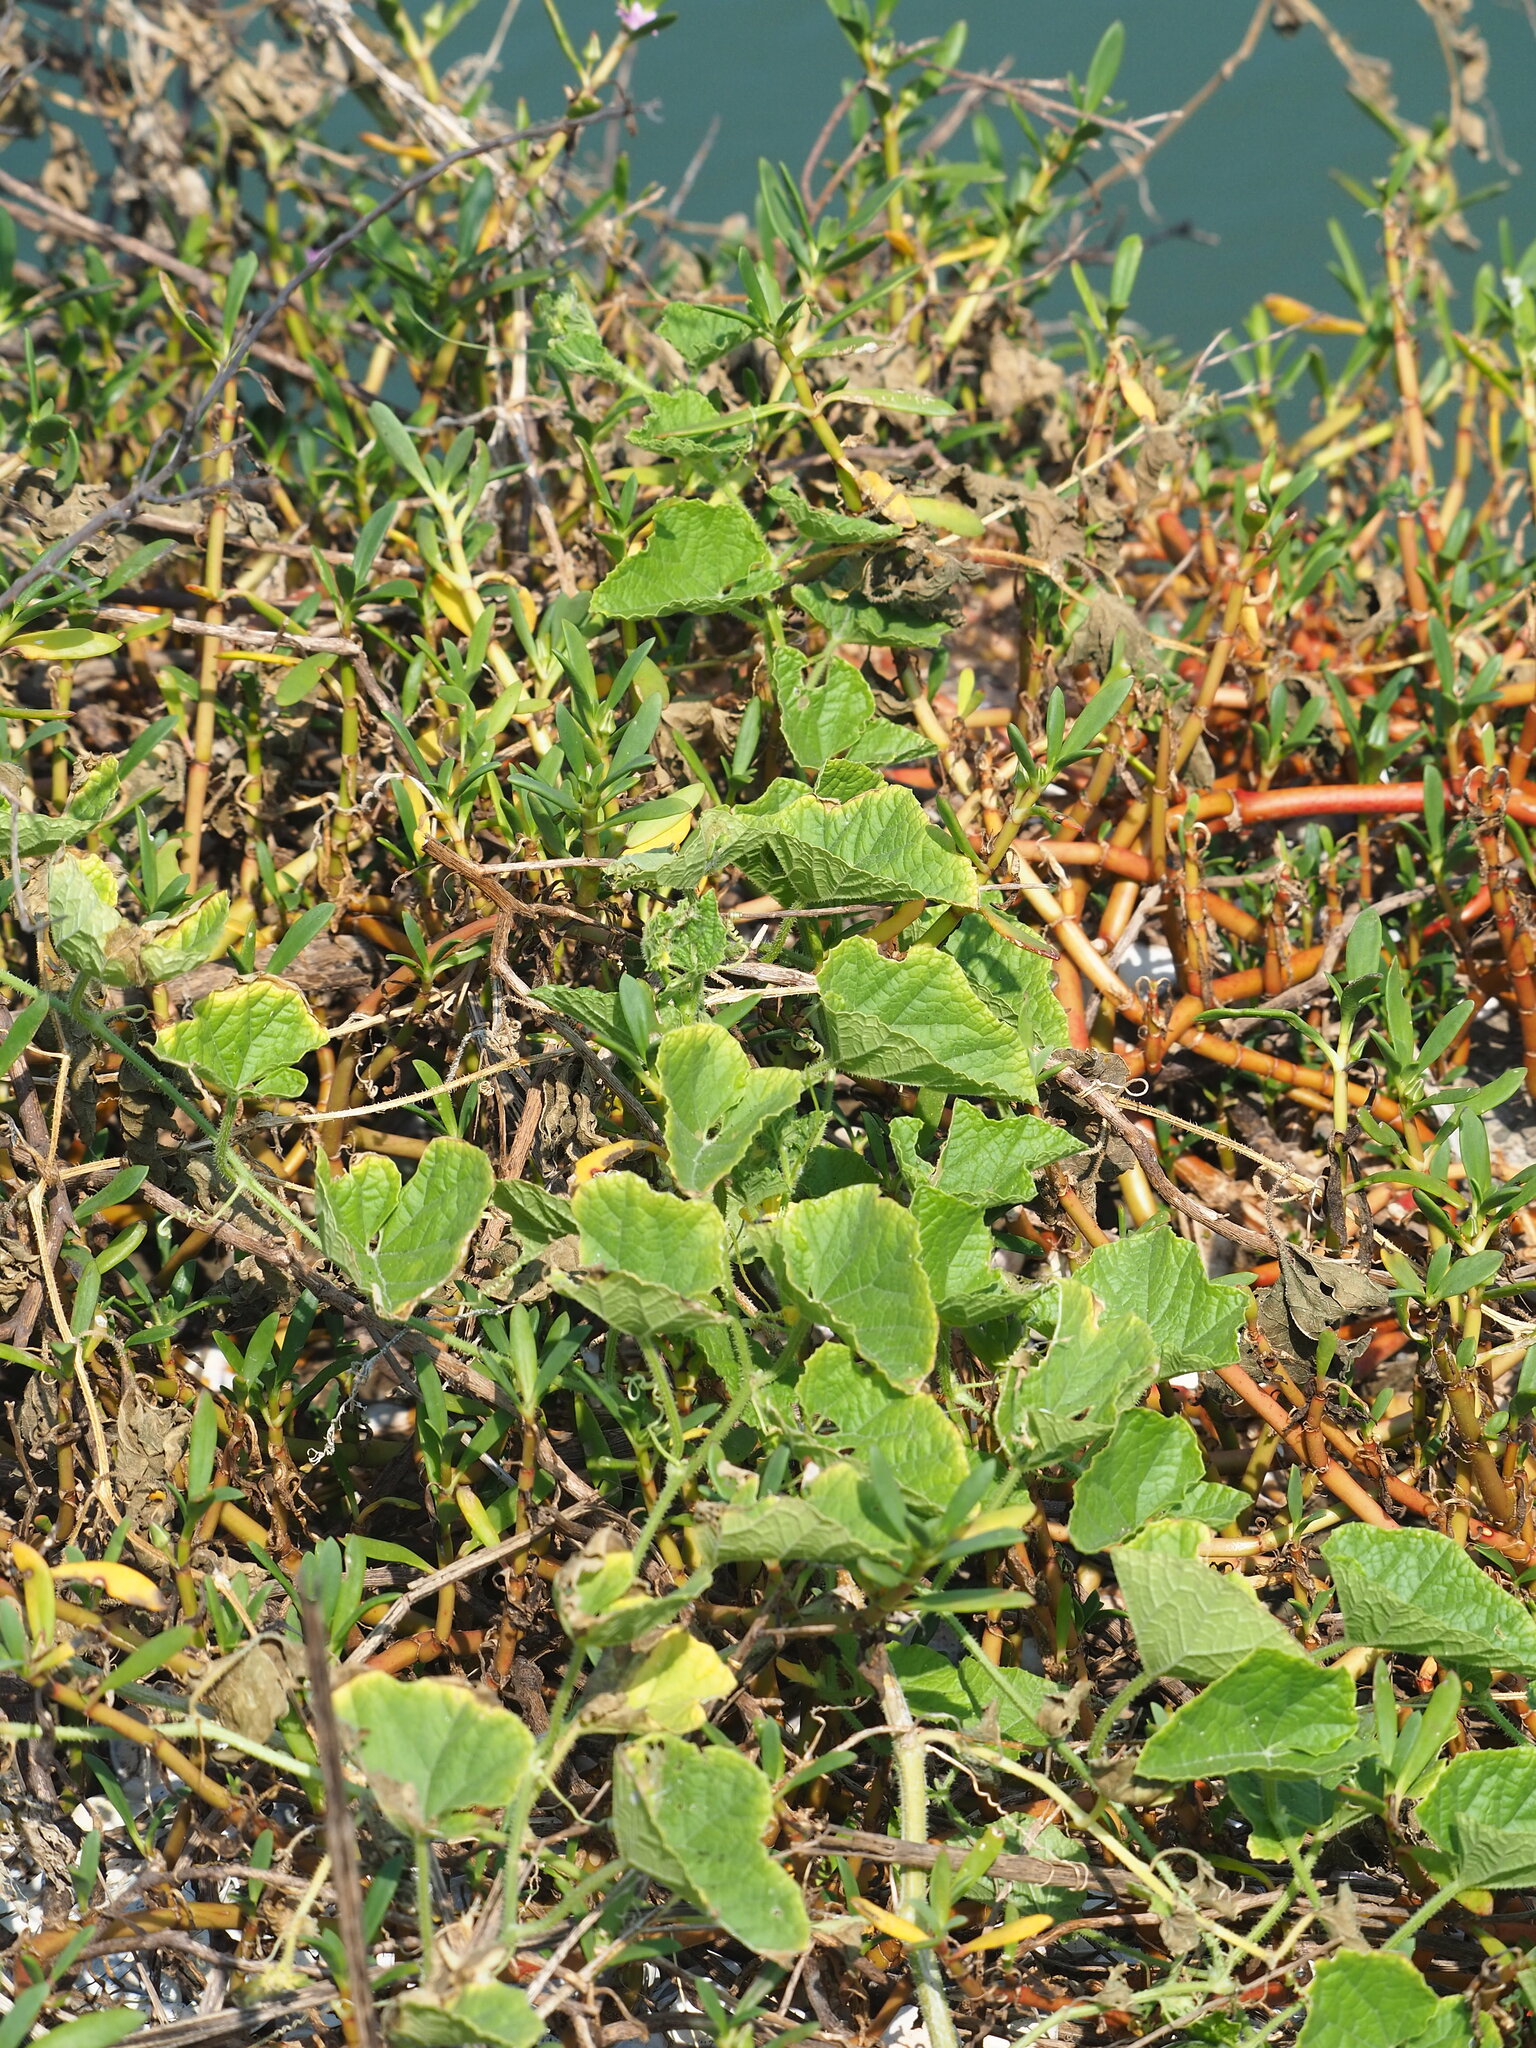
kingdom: Plantae
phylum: Tracheophyta
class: Magnoliopsida
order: Cucurbitales
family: Cucurbitaceae
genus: Cucumis
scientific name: Cucumis melo
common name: Melon
